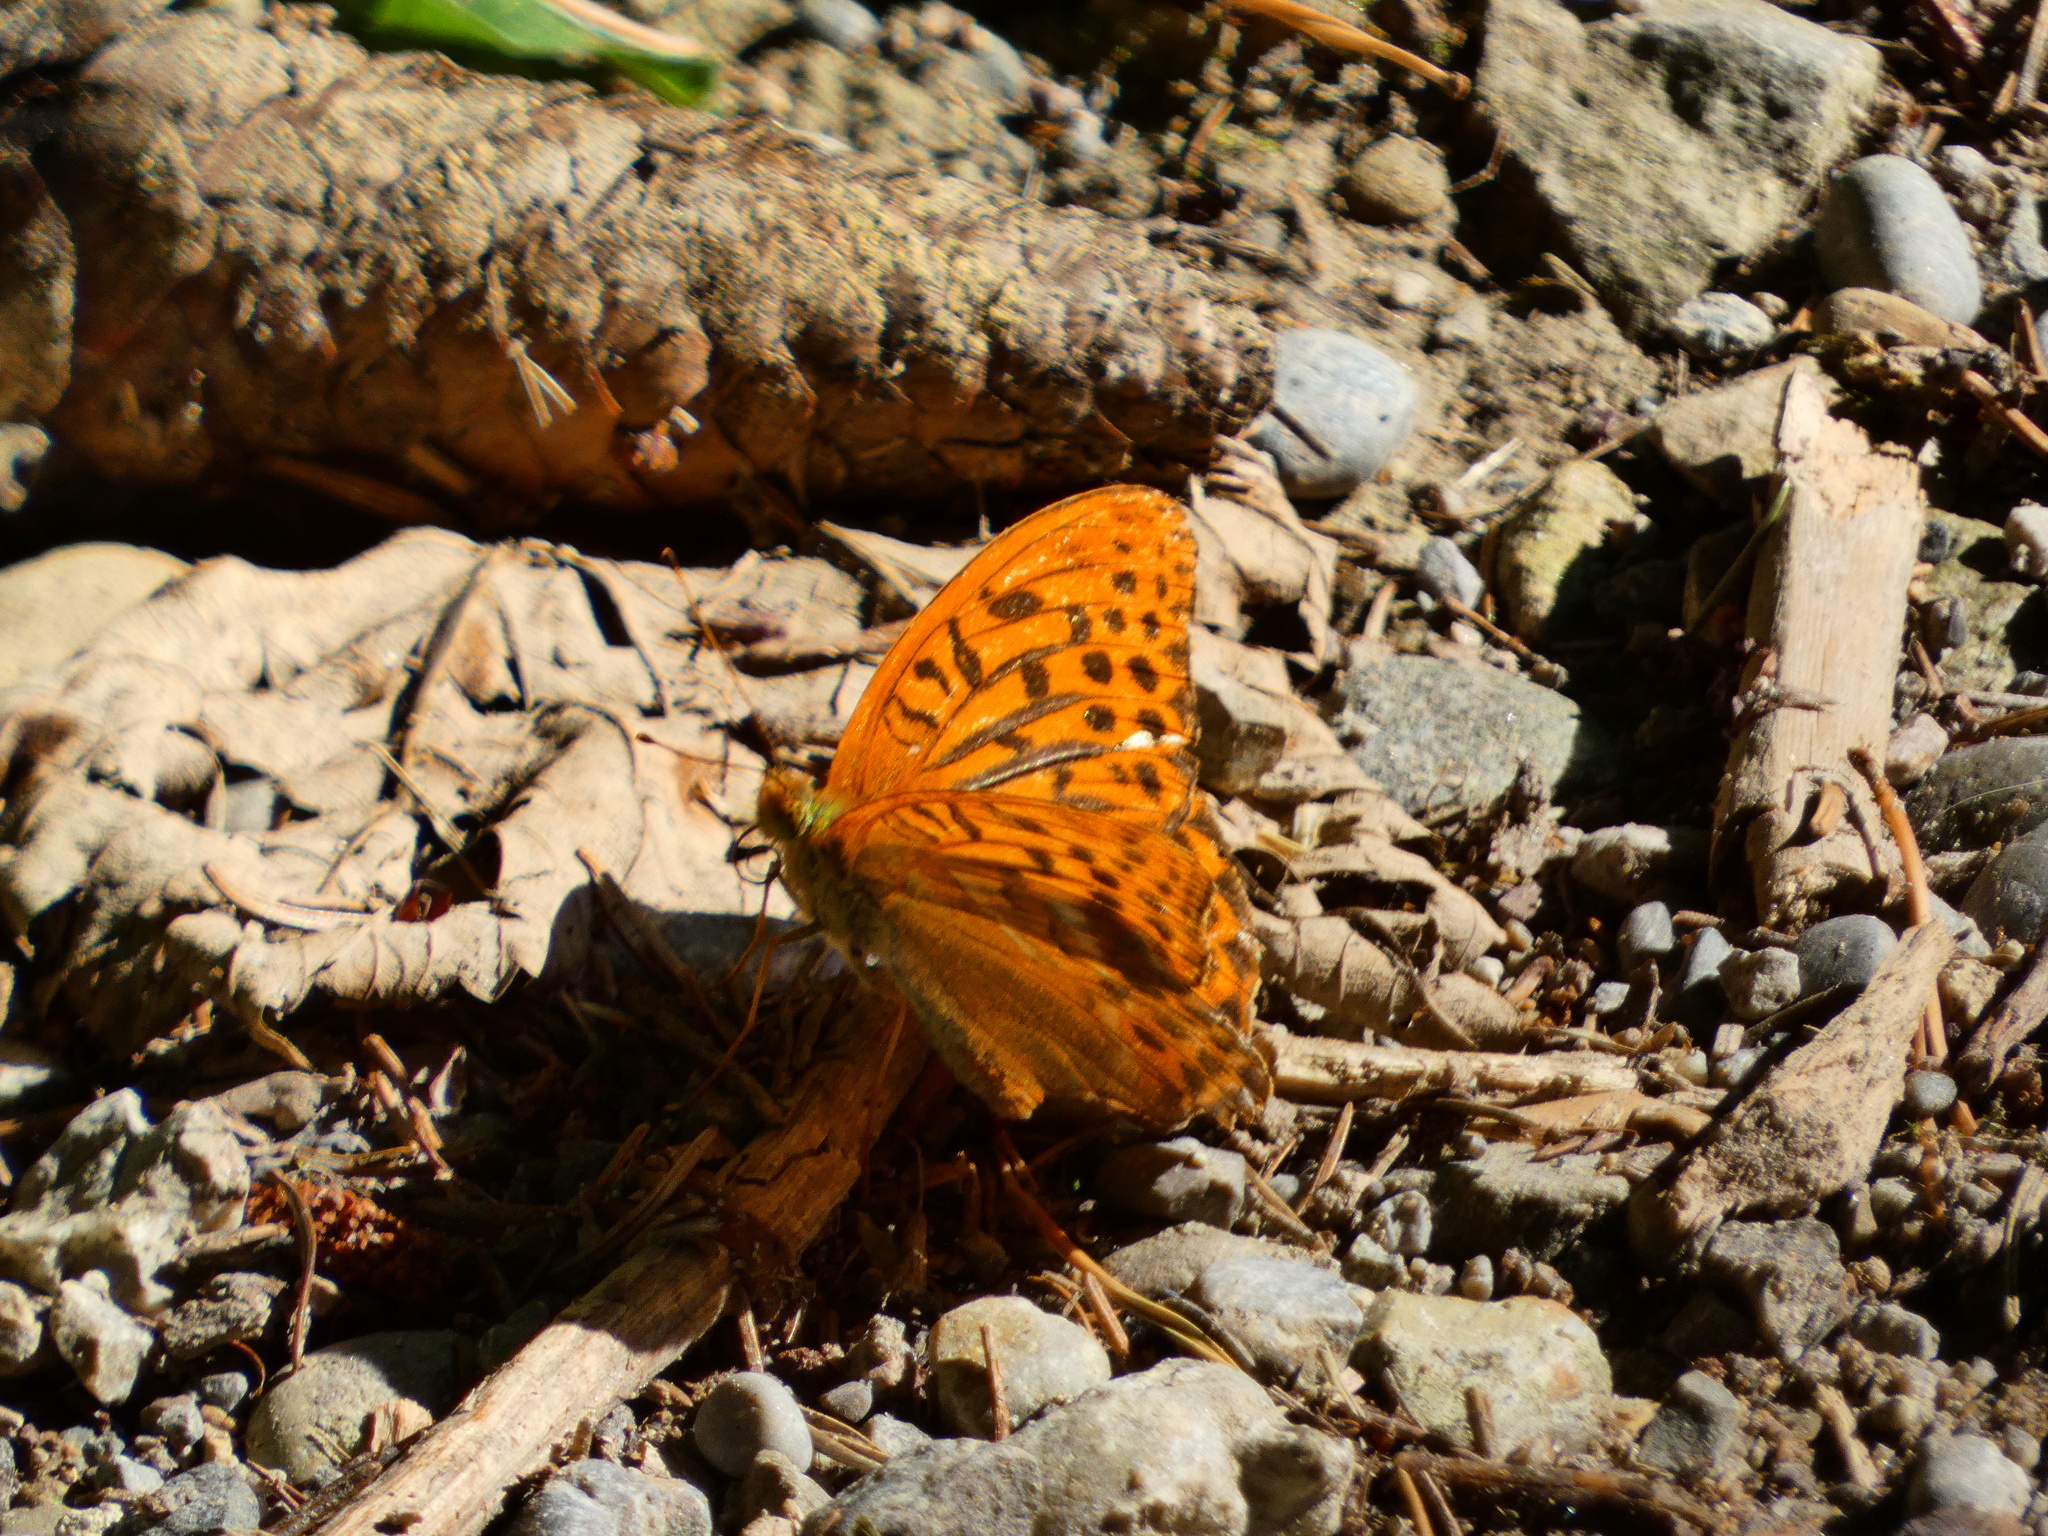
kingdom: Animalia
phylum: Arthropoda
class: Insecta
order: Lepidoptera
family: Nymphalidae
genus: Argynnis
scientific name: Argynnis paphia
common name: Silver-washed fritillary
